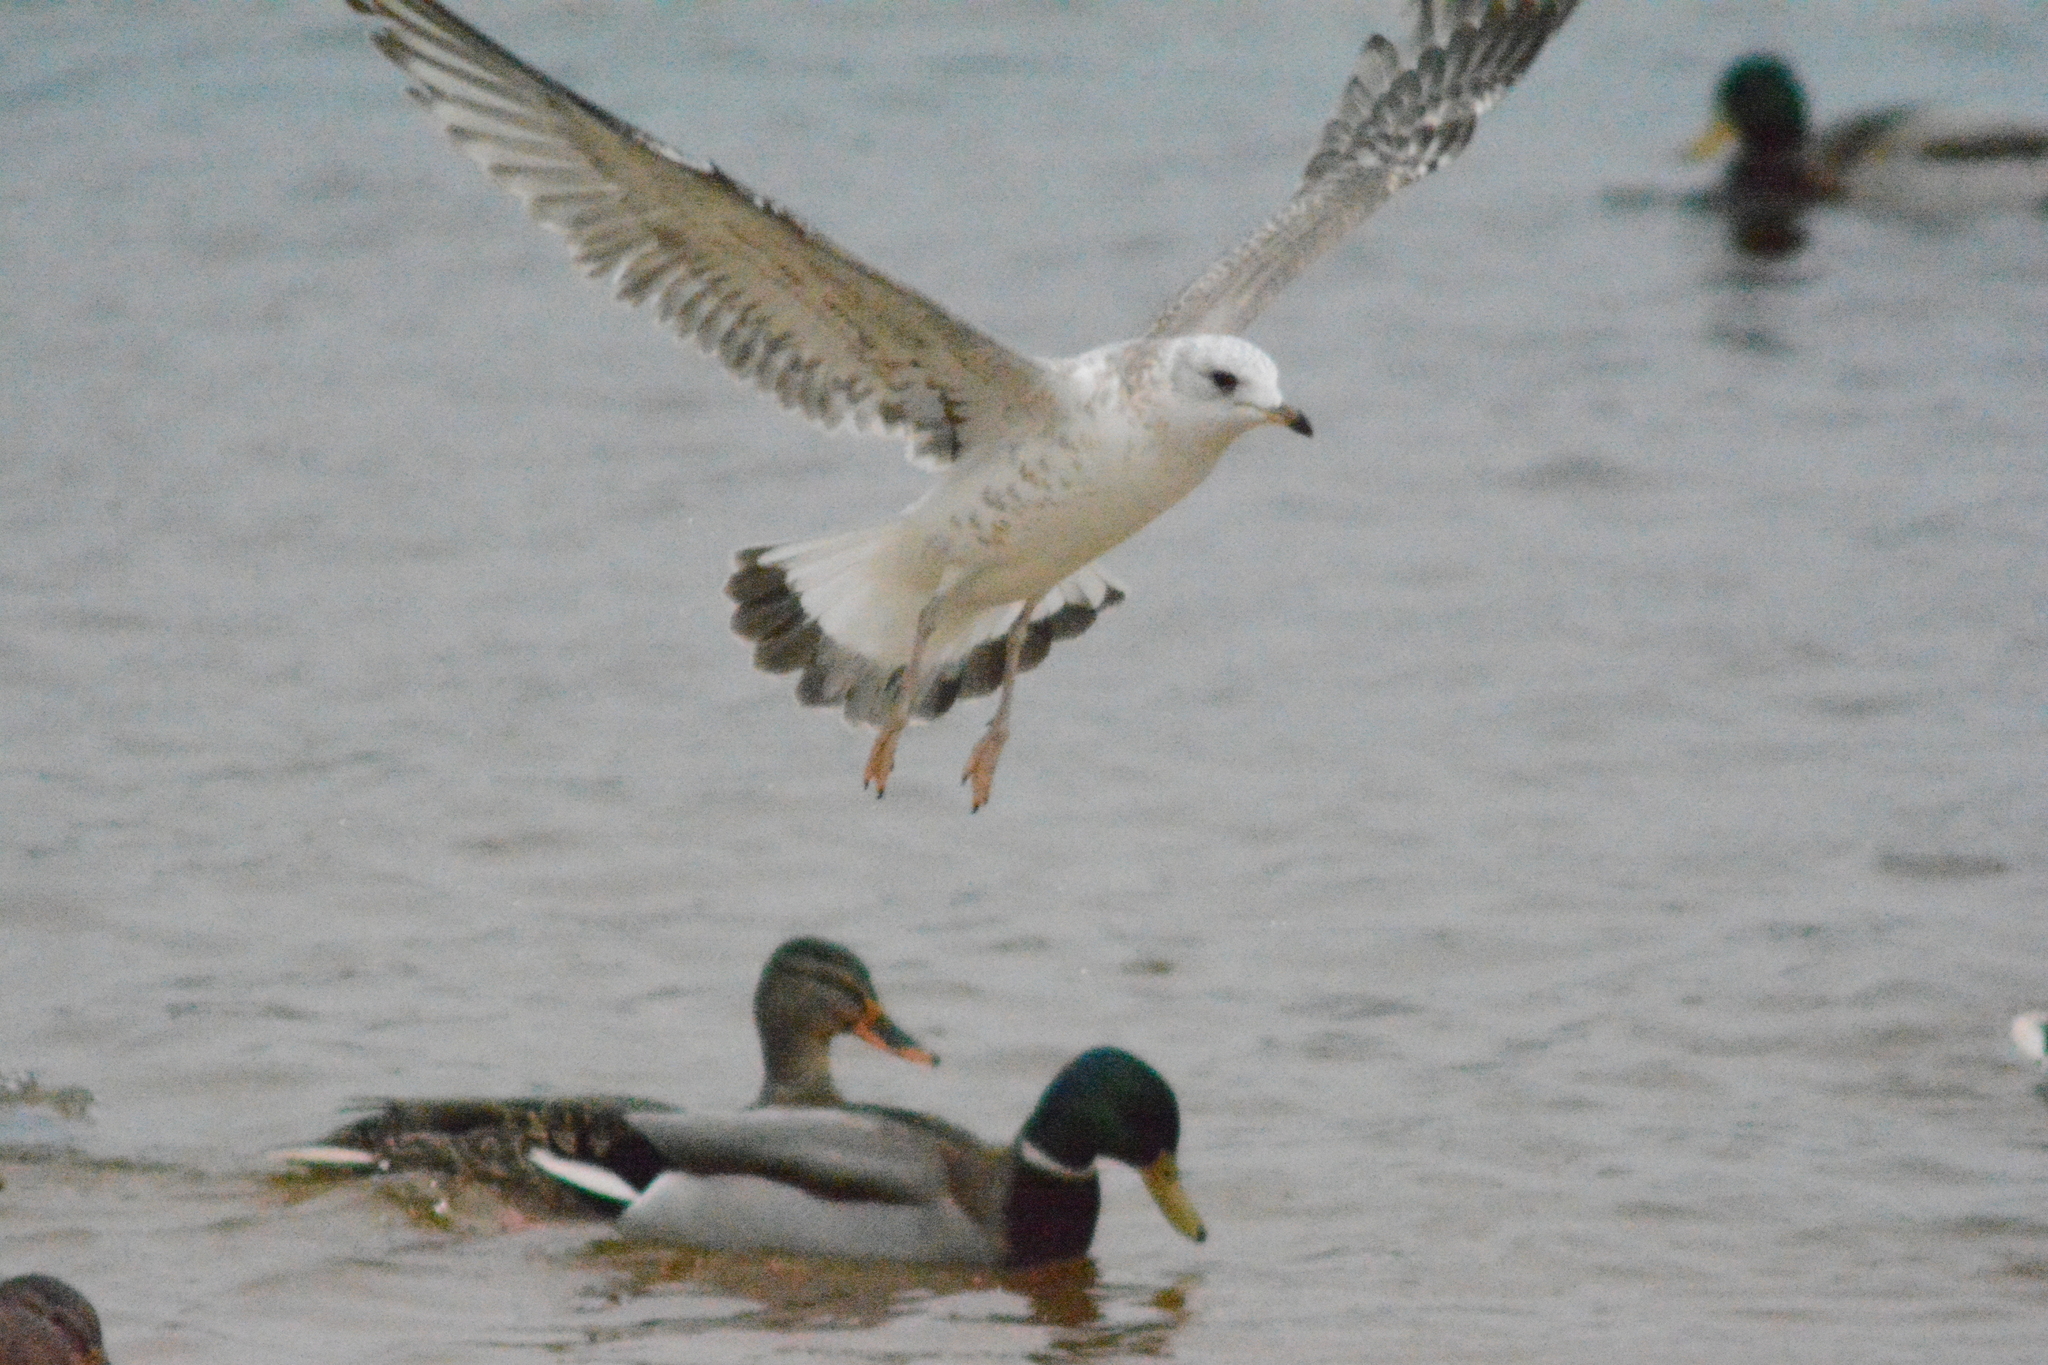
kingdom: Animalia
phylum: Chordata
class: Aves
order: Charadriiformes
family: Laridae
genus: Larus
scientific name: Larus canus
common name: Mew gull
